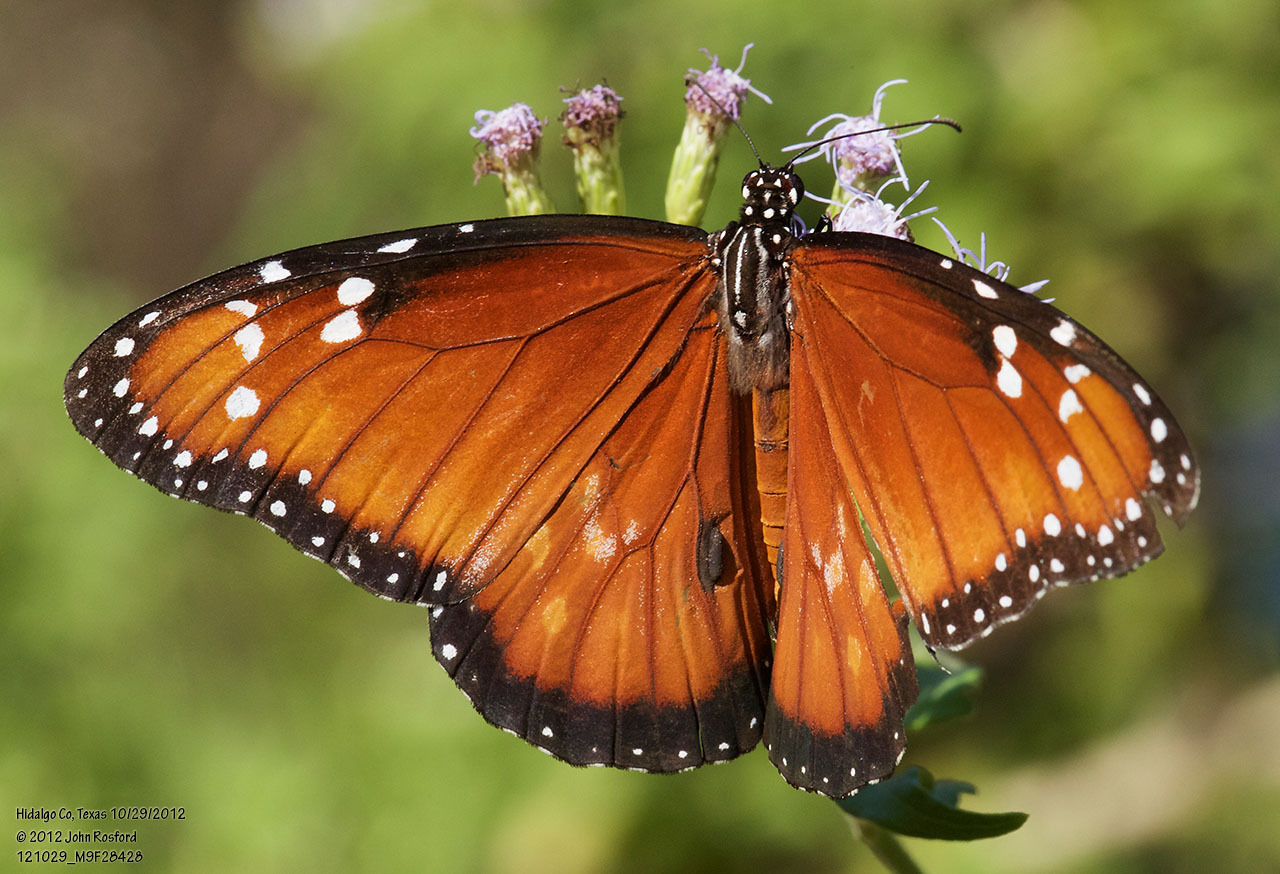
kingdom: Animalia
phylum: Arthropoda
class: Insecta
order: Lepidoptera
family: Nymphalidae
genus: Danaus
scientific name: Danaus eresimus
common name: Soldier
